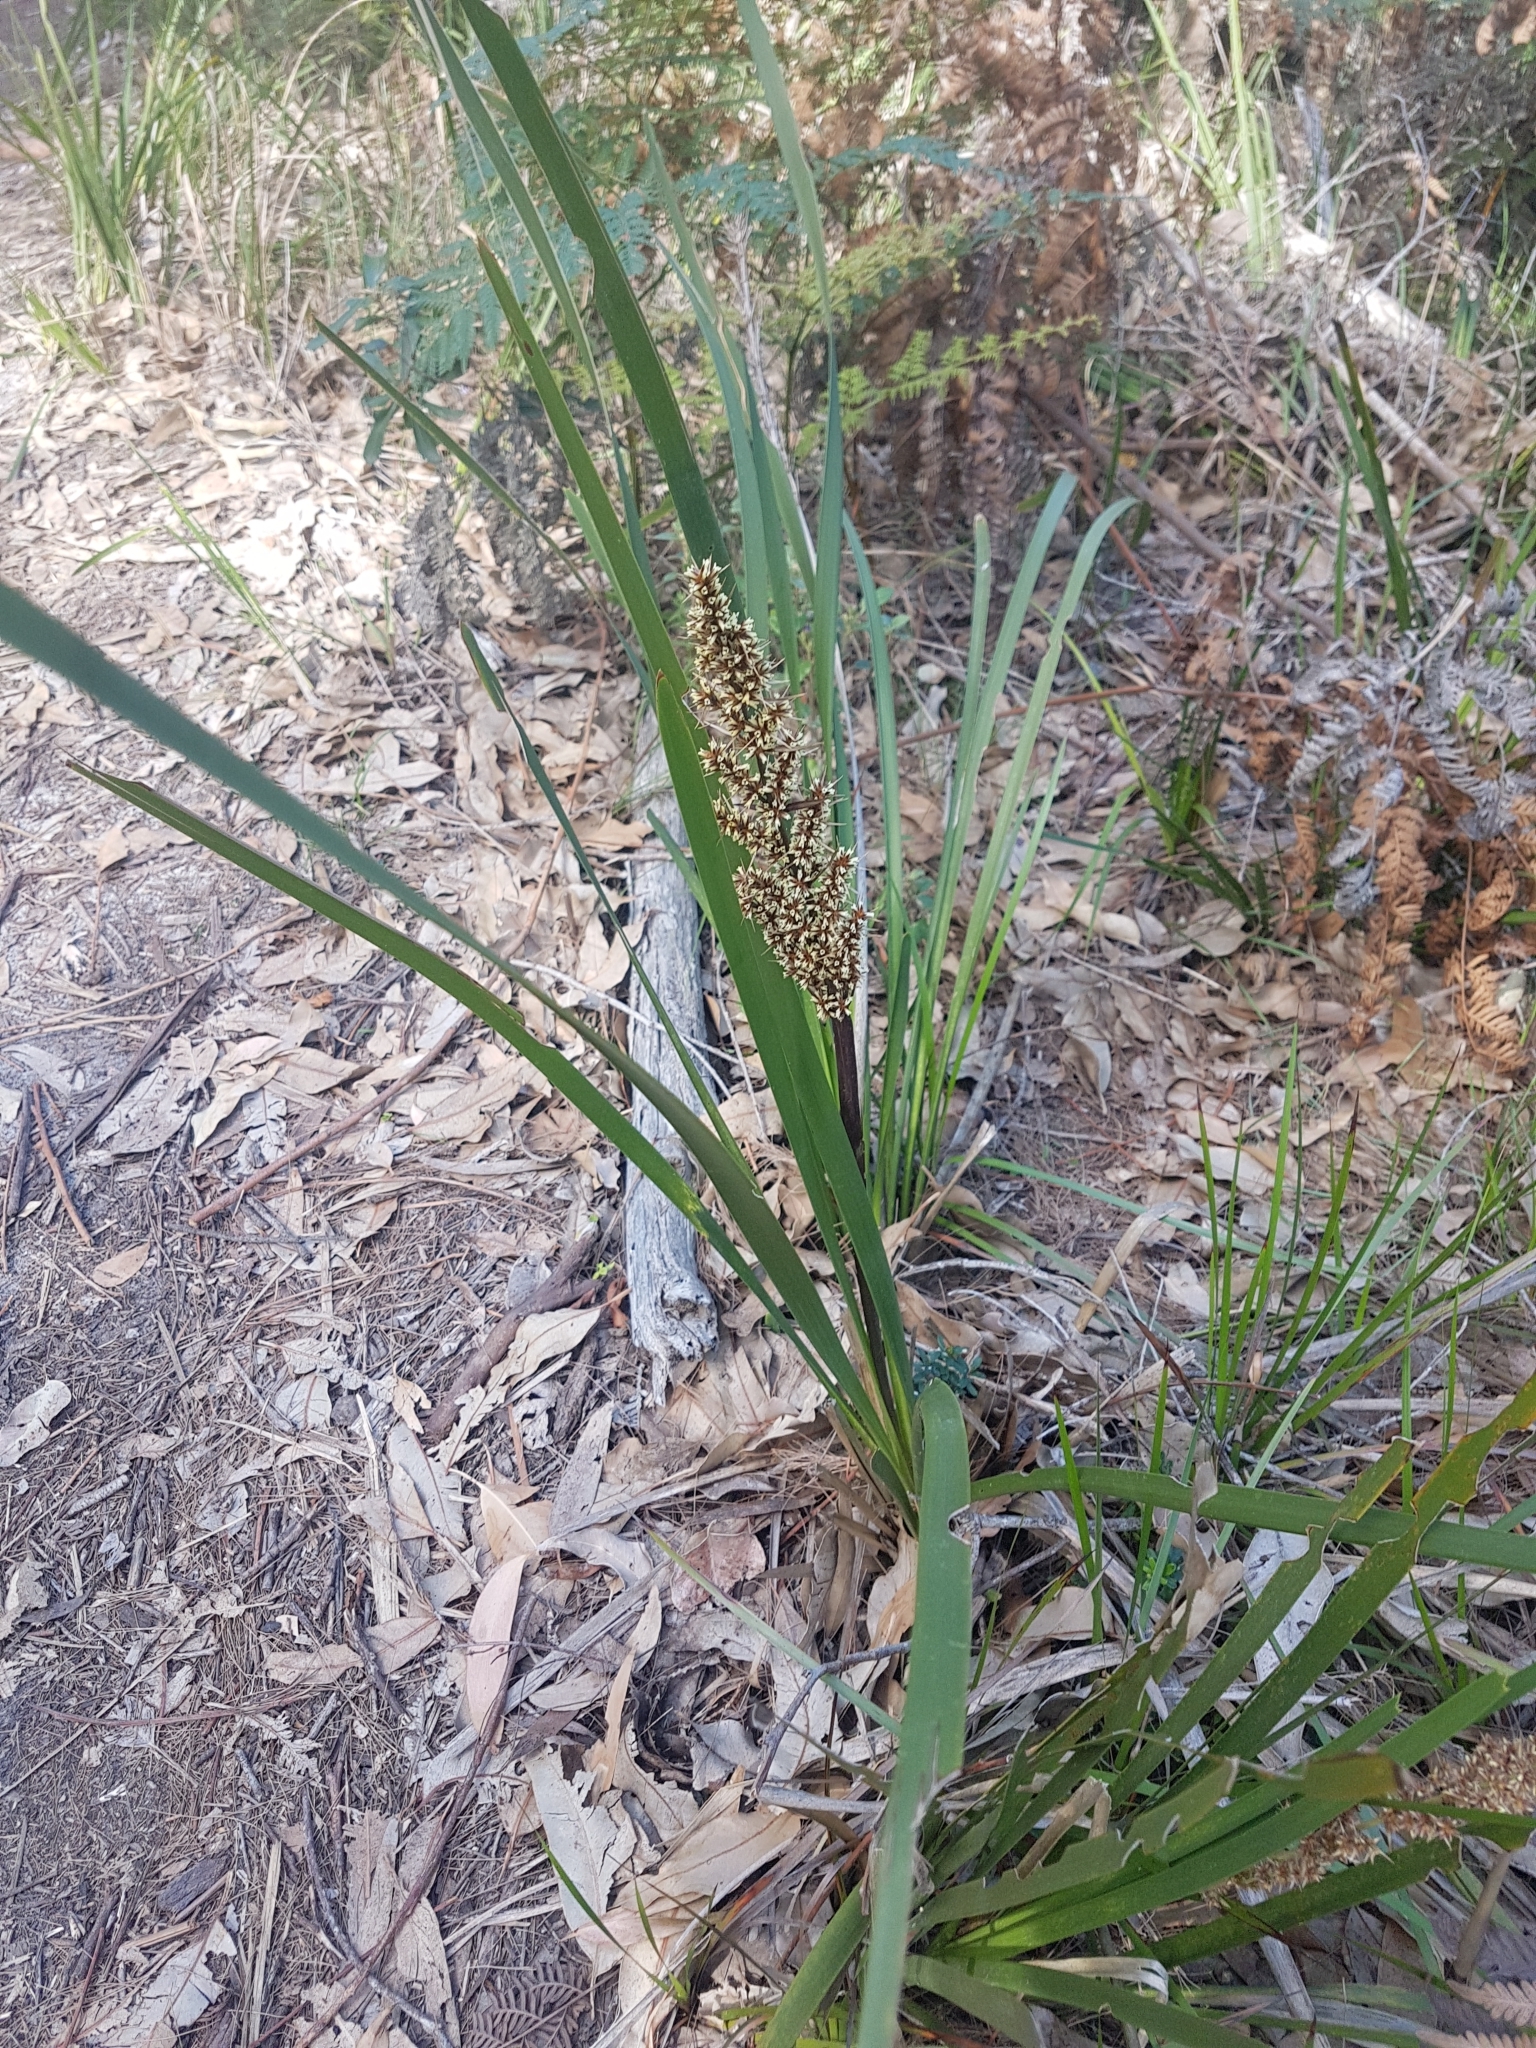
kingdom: Plantae
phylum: Tracheophyta
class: Liliopsida
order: Asparagales
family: Asparagaceae
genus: Lomandra
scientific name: Lomandra longifolia
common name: Longleaf mat-rush
